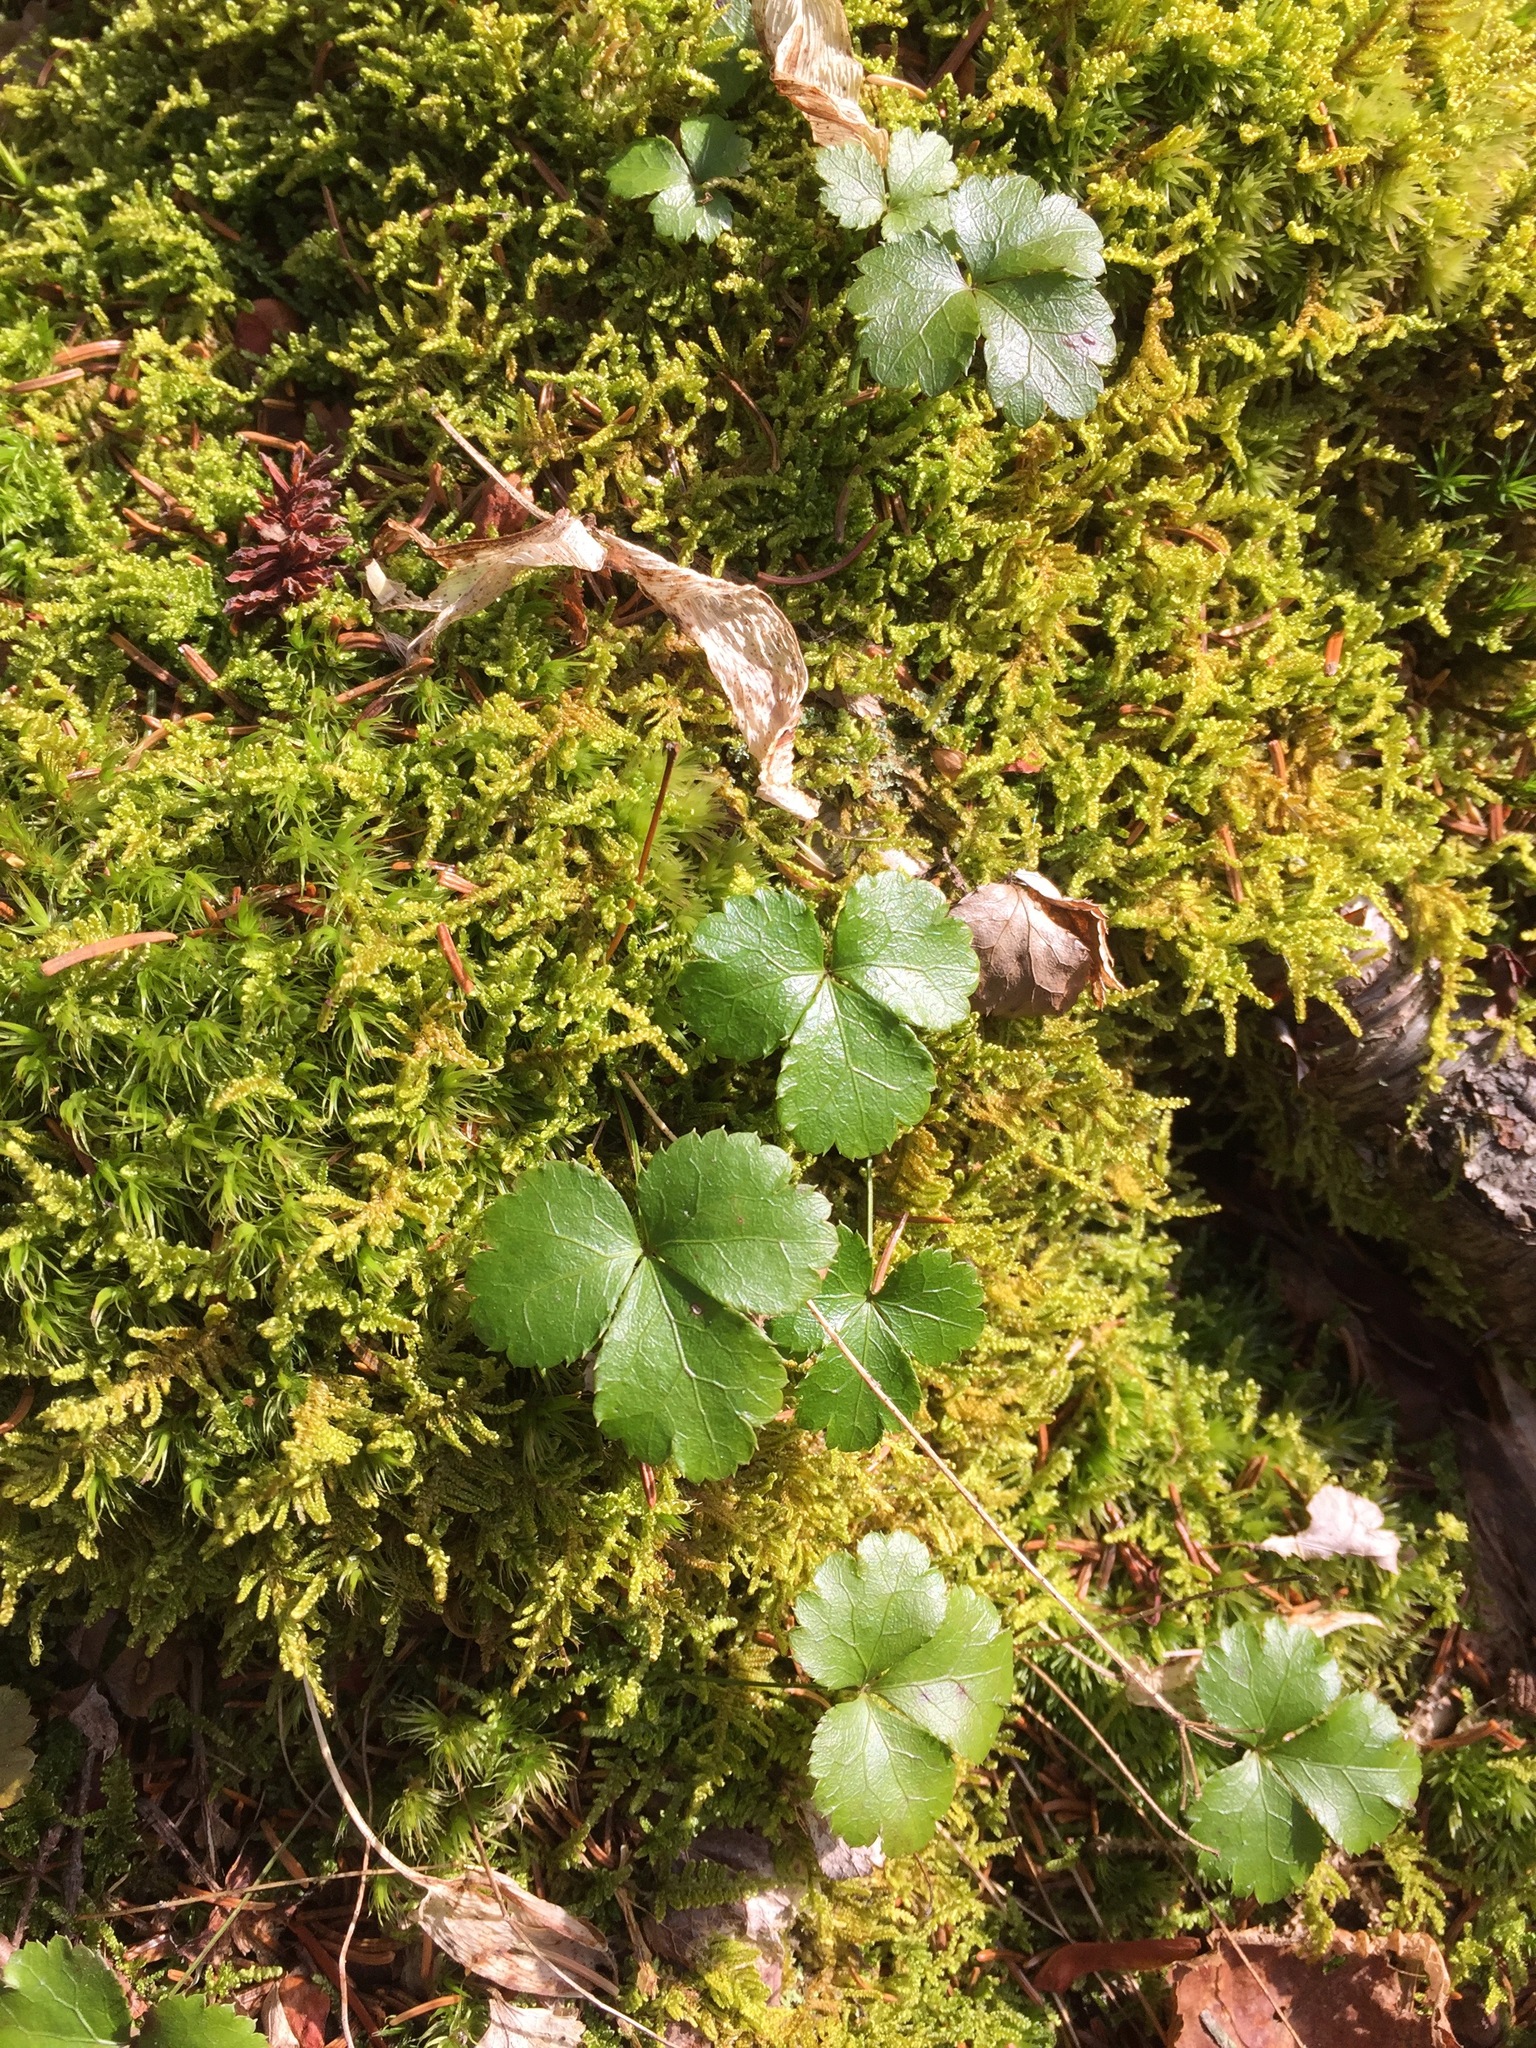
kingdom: Plantae
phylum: Tracheophyta
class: Magnoliopsida
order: Ranunculales
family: Ranunculaceae
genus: Coptis
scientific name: Coptis trifolia
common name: Canker-root
